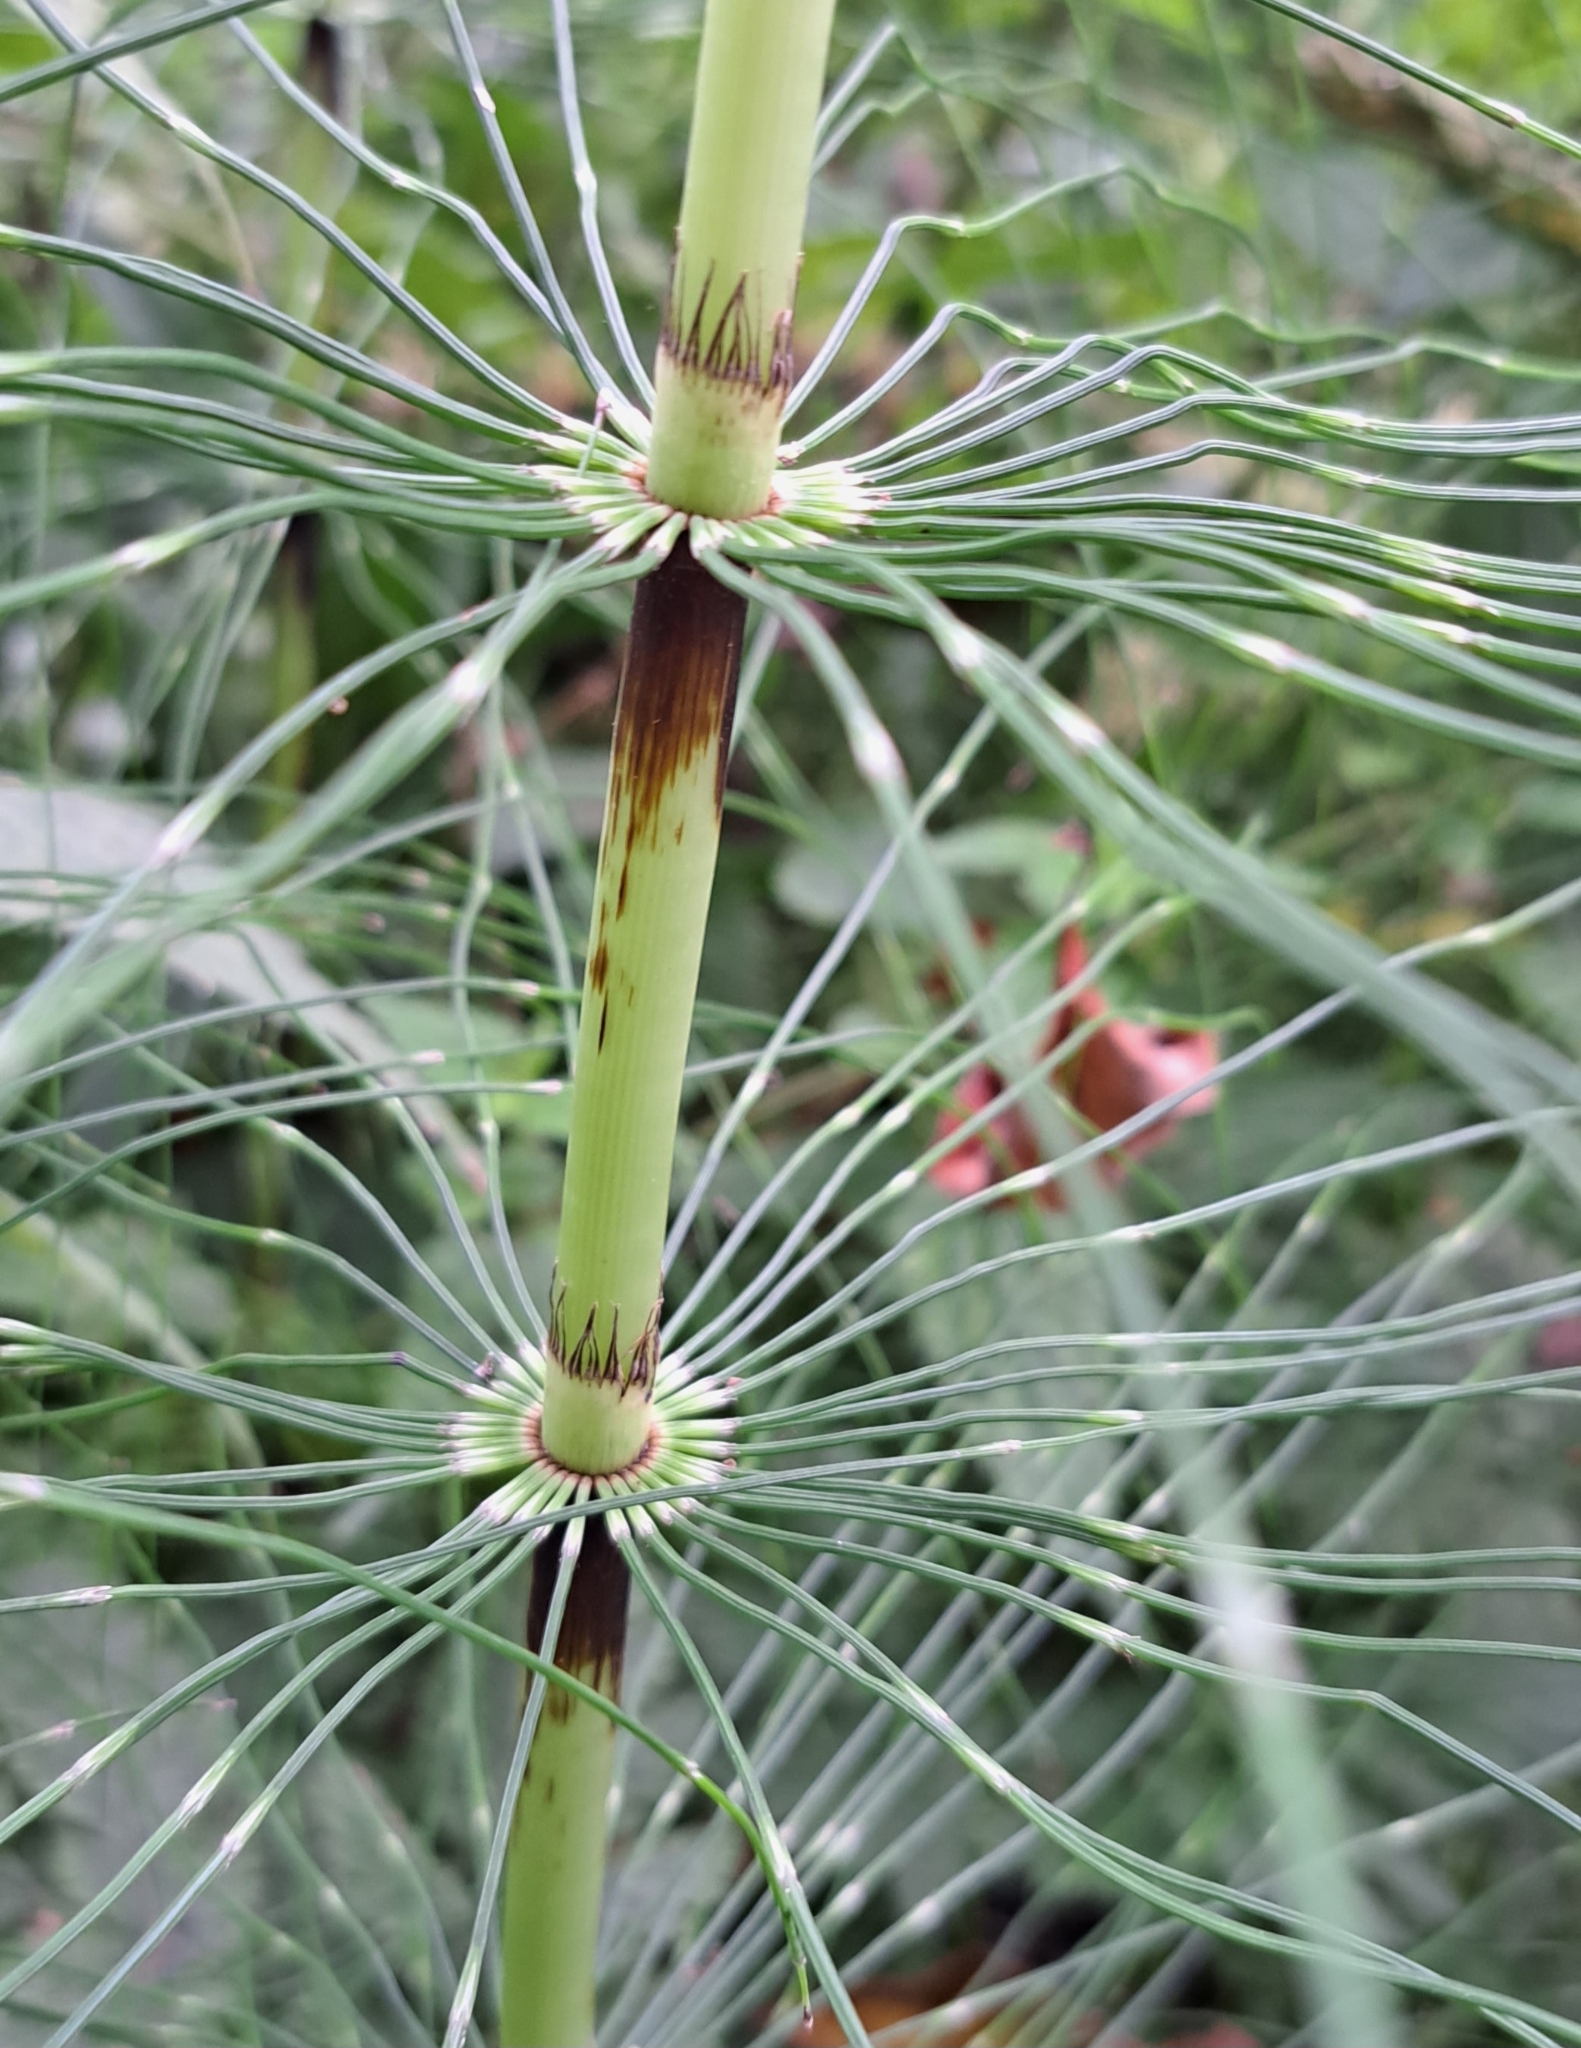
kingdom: Plantae
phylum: Tracheophyta
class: Polypodiopsida
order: Equisetales
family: Equisetaceae
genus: Equisetum
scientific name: Equisetum telmateia
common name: Great horsetail
